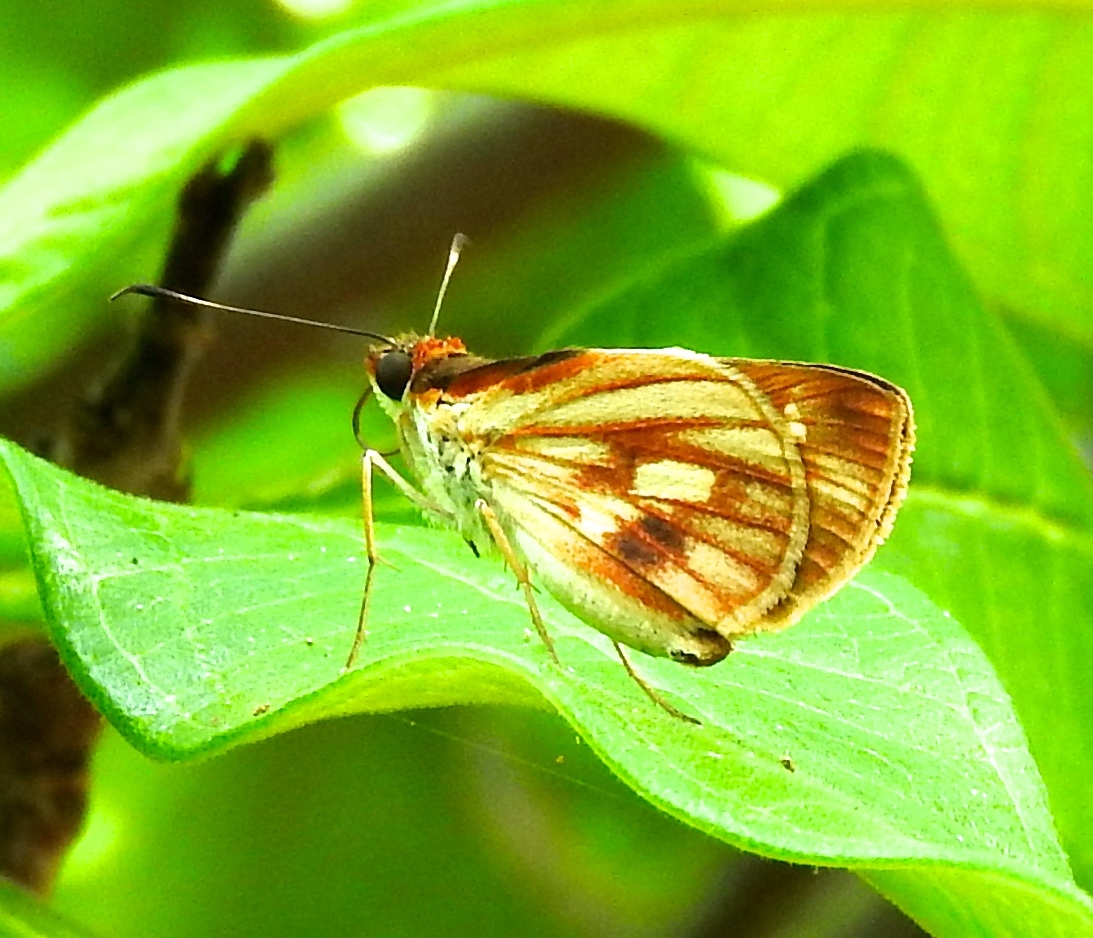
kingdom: Animalia
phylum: Arthropoda
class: Insecta
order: Lepidoptera
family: Hesperiidae
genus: Troyus
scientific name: Troyus fantasos
